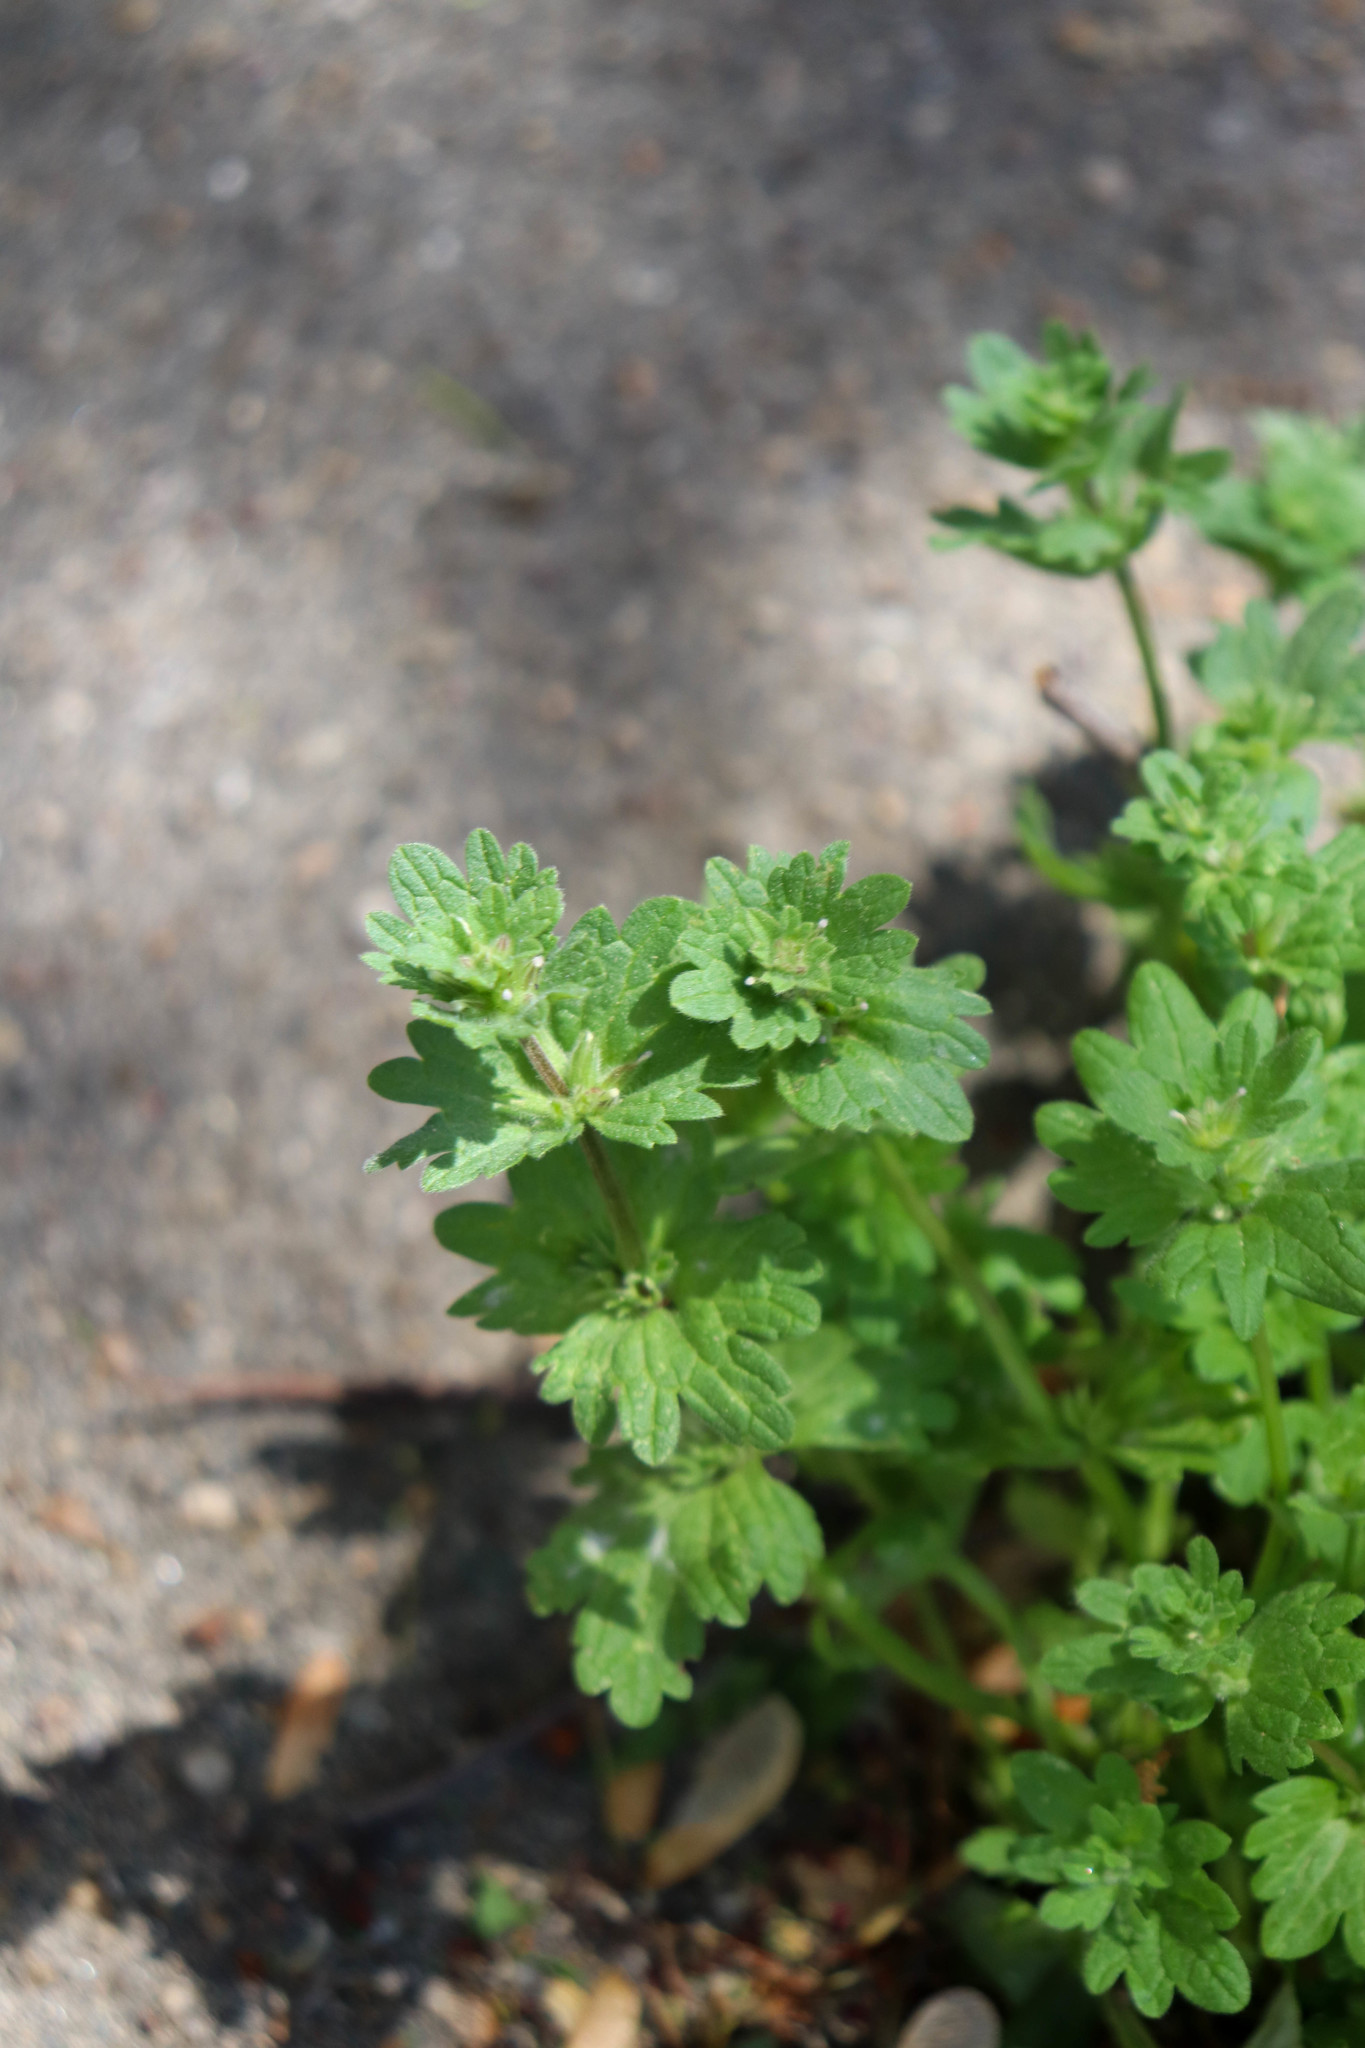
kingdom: Plantae
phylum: Tracheophyta
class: Magnoliopsida
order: Lamiales
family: Lamiaceae
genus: Lamium
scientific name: Lamium amplexicaule
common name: Henbit dead-nettle
